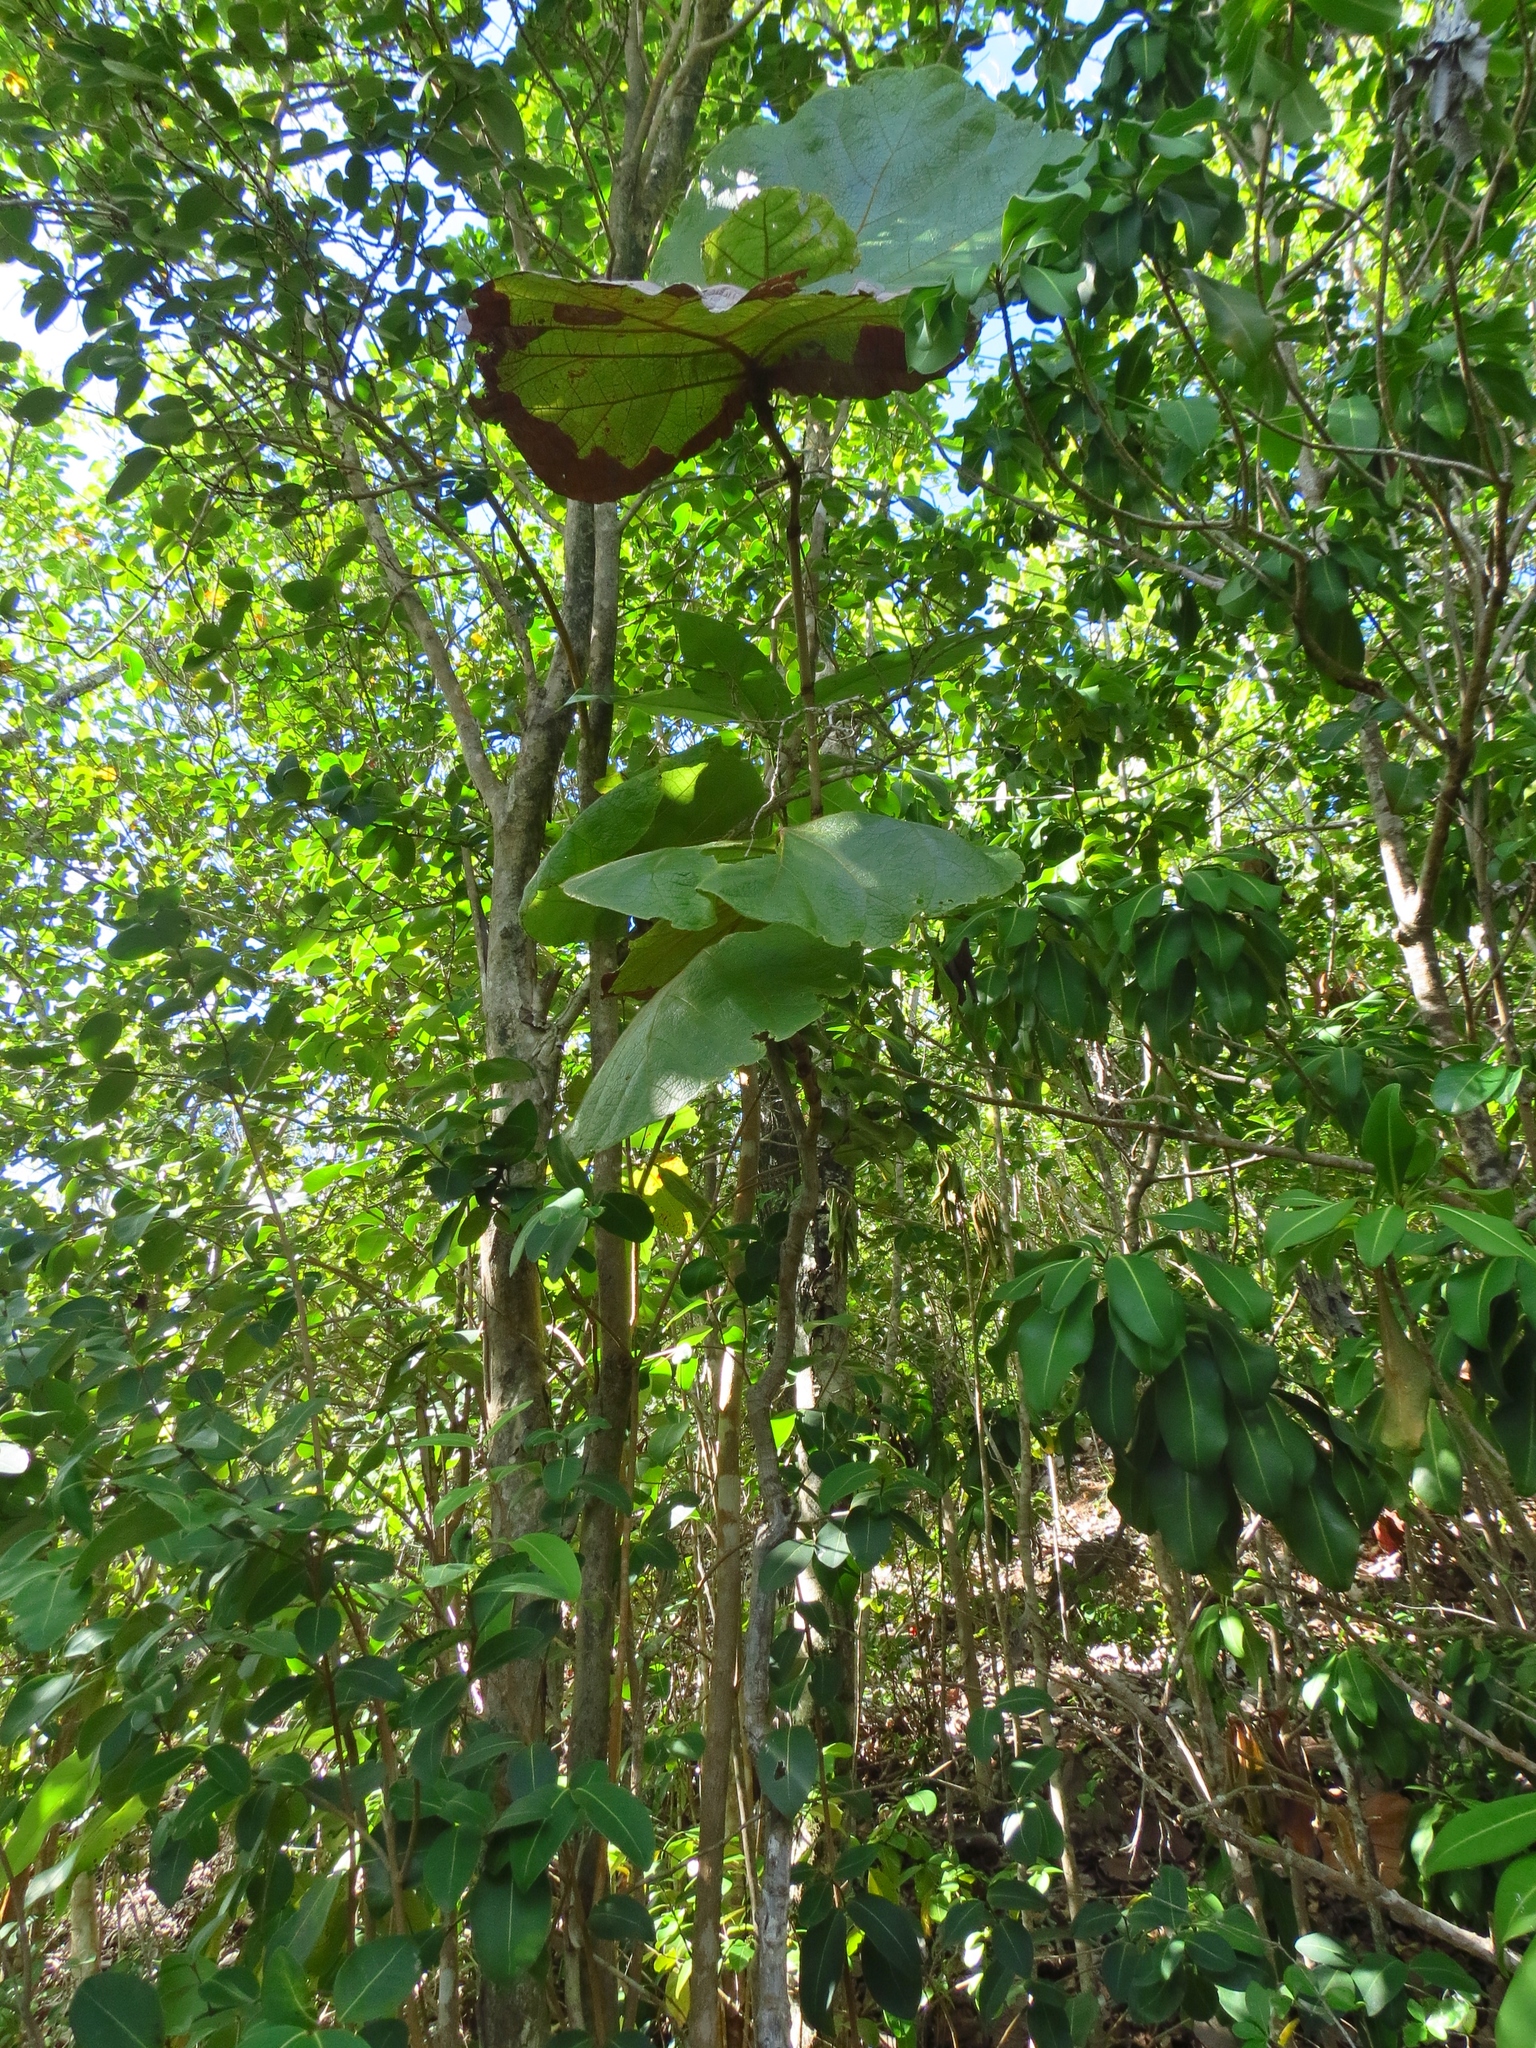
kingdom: Plantae
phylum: Tracheophyta
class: Magnoliopsida
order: Caryophyllales
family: Polygonaceae
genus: Coccoloba
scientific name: Coccoloba pubescens
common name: Mountain-grape
